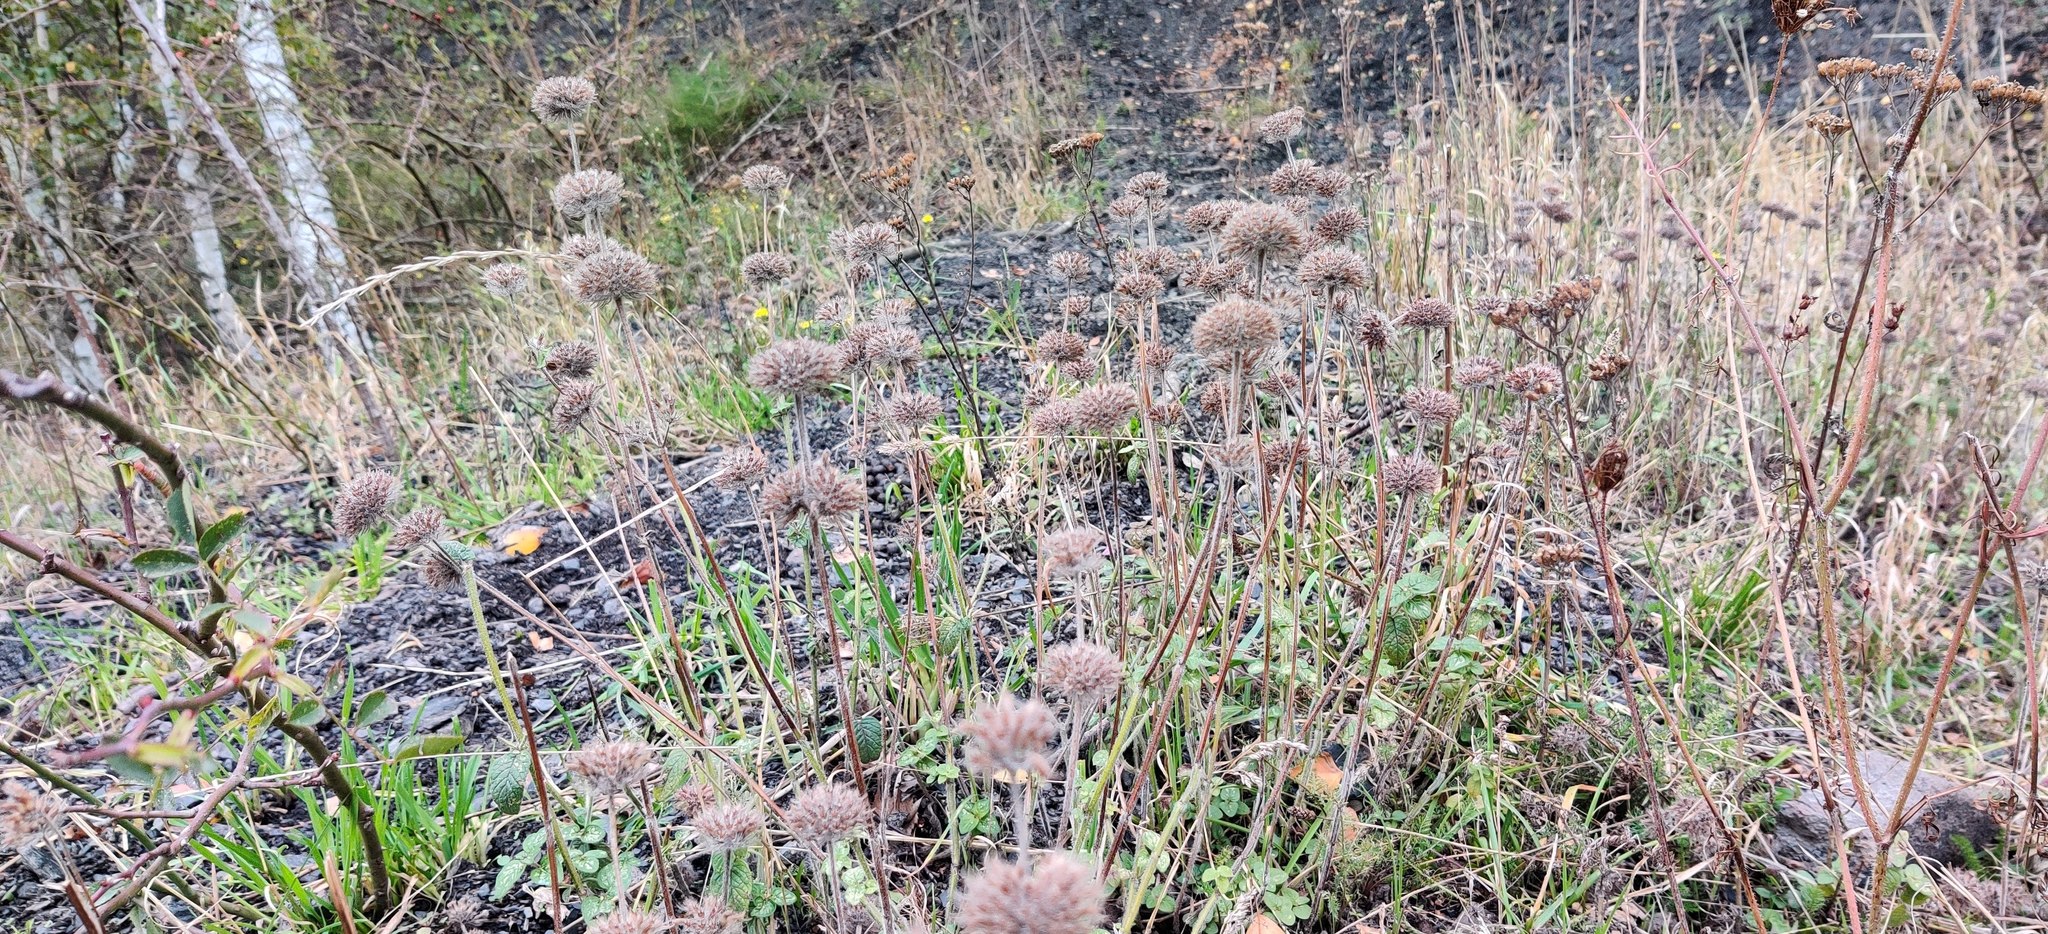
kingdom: Plantae
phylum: Tracheophyta
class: Magnoliopsida
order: Lamiales
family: Lamiaceae
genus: Clinopodium
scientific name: Clinopodium vulgare
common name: Wild basil
